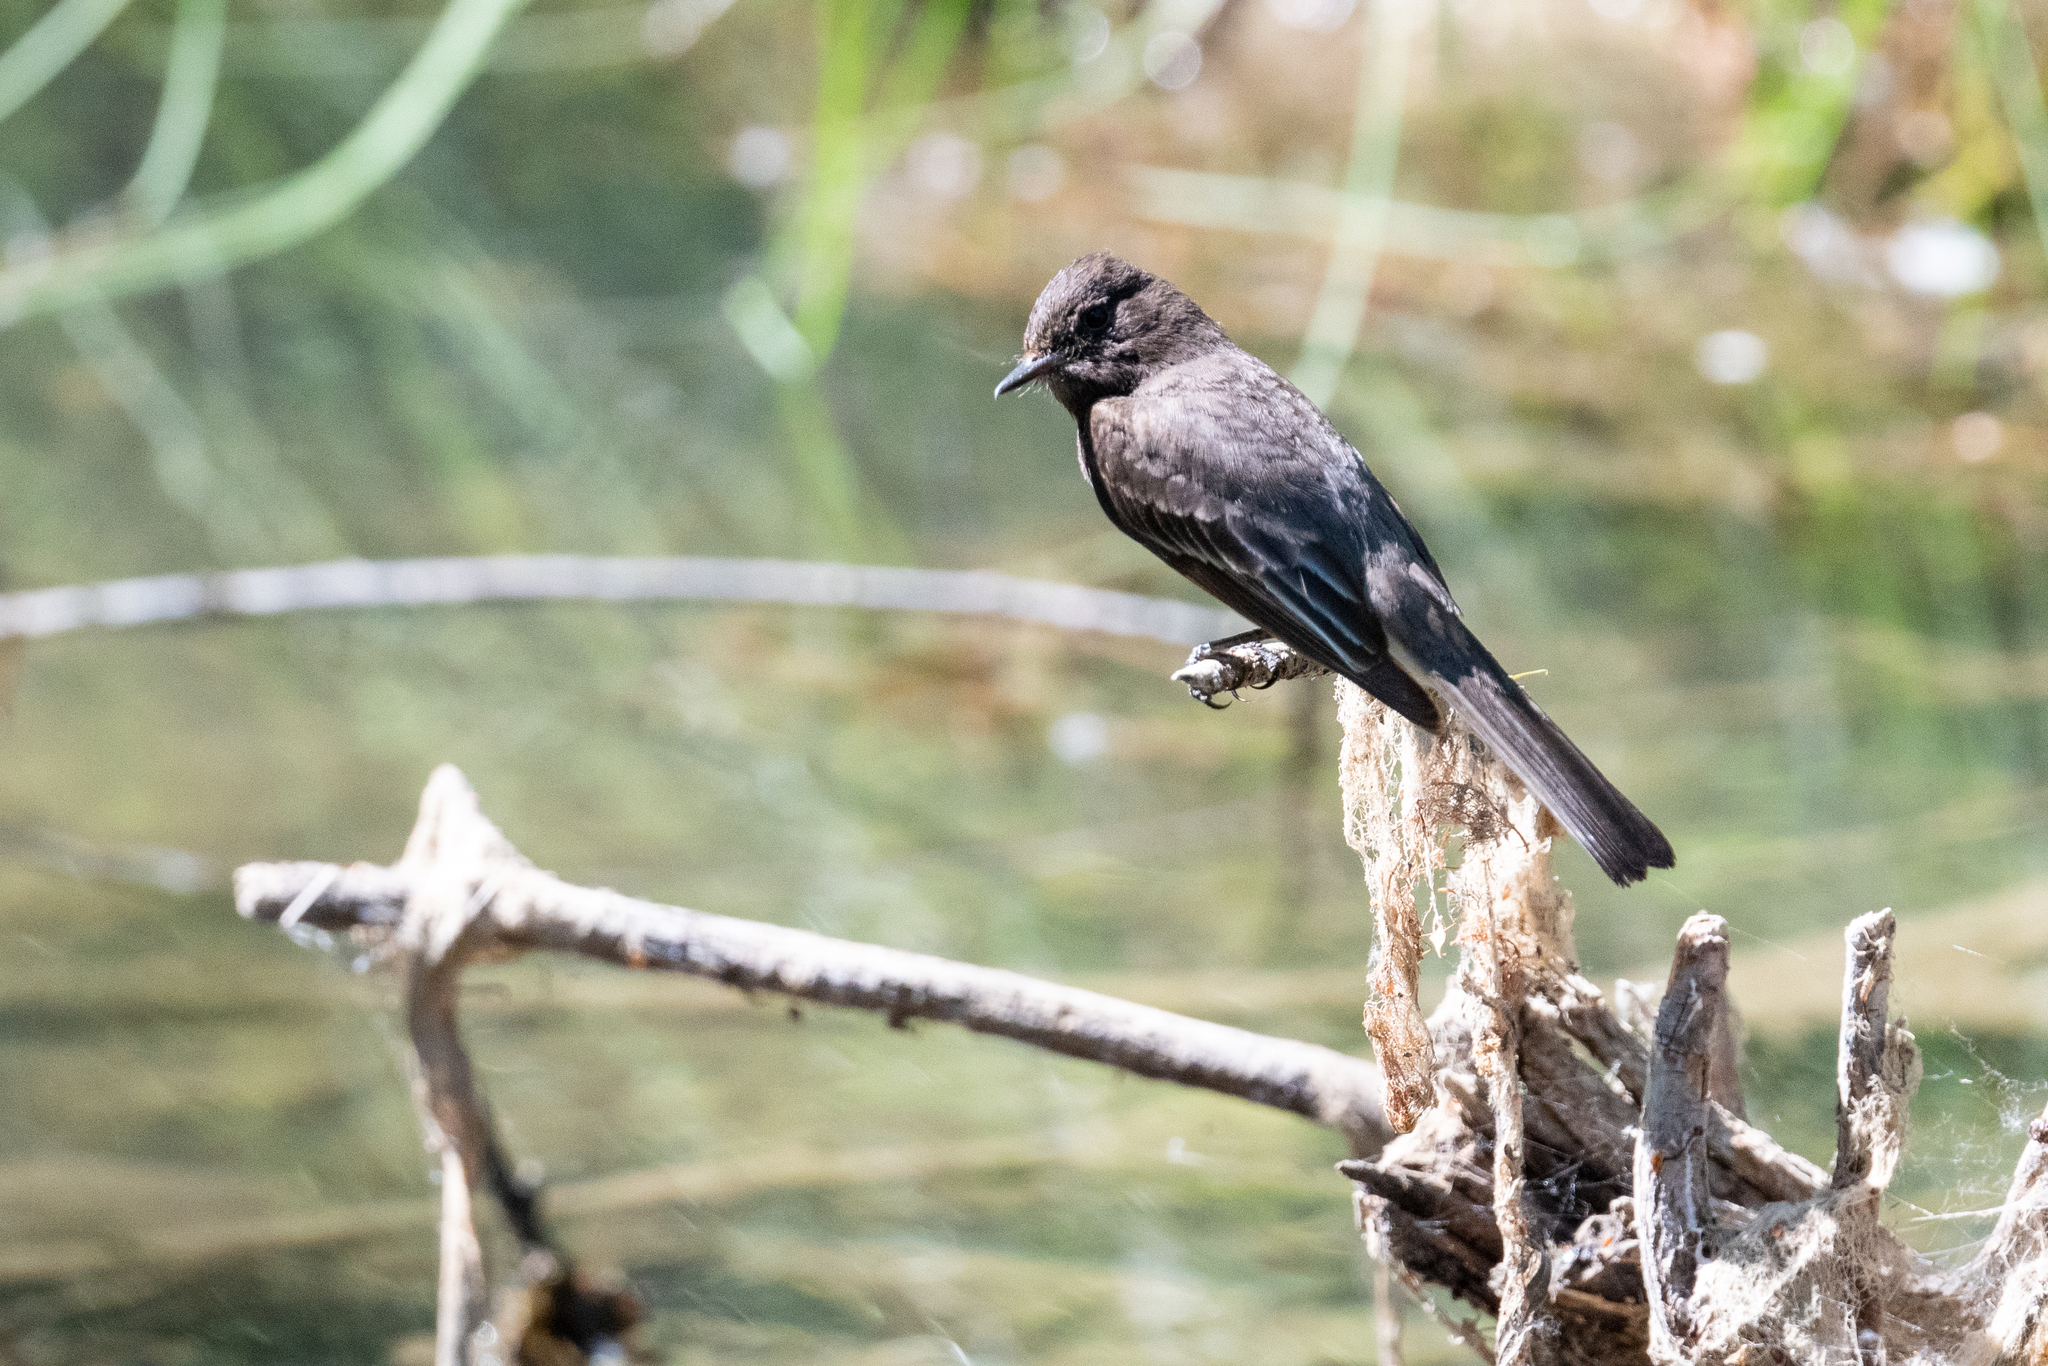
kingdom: Animalia
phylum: Chordata
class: Aves
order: Passeriformes
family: Tyrannidae
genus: Sayornis
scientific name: Sayornis nigricans
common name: Black phoebe
